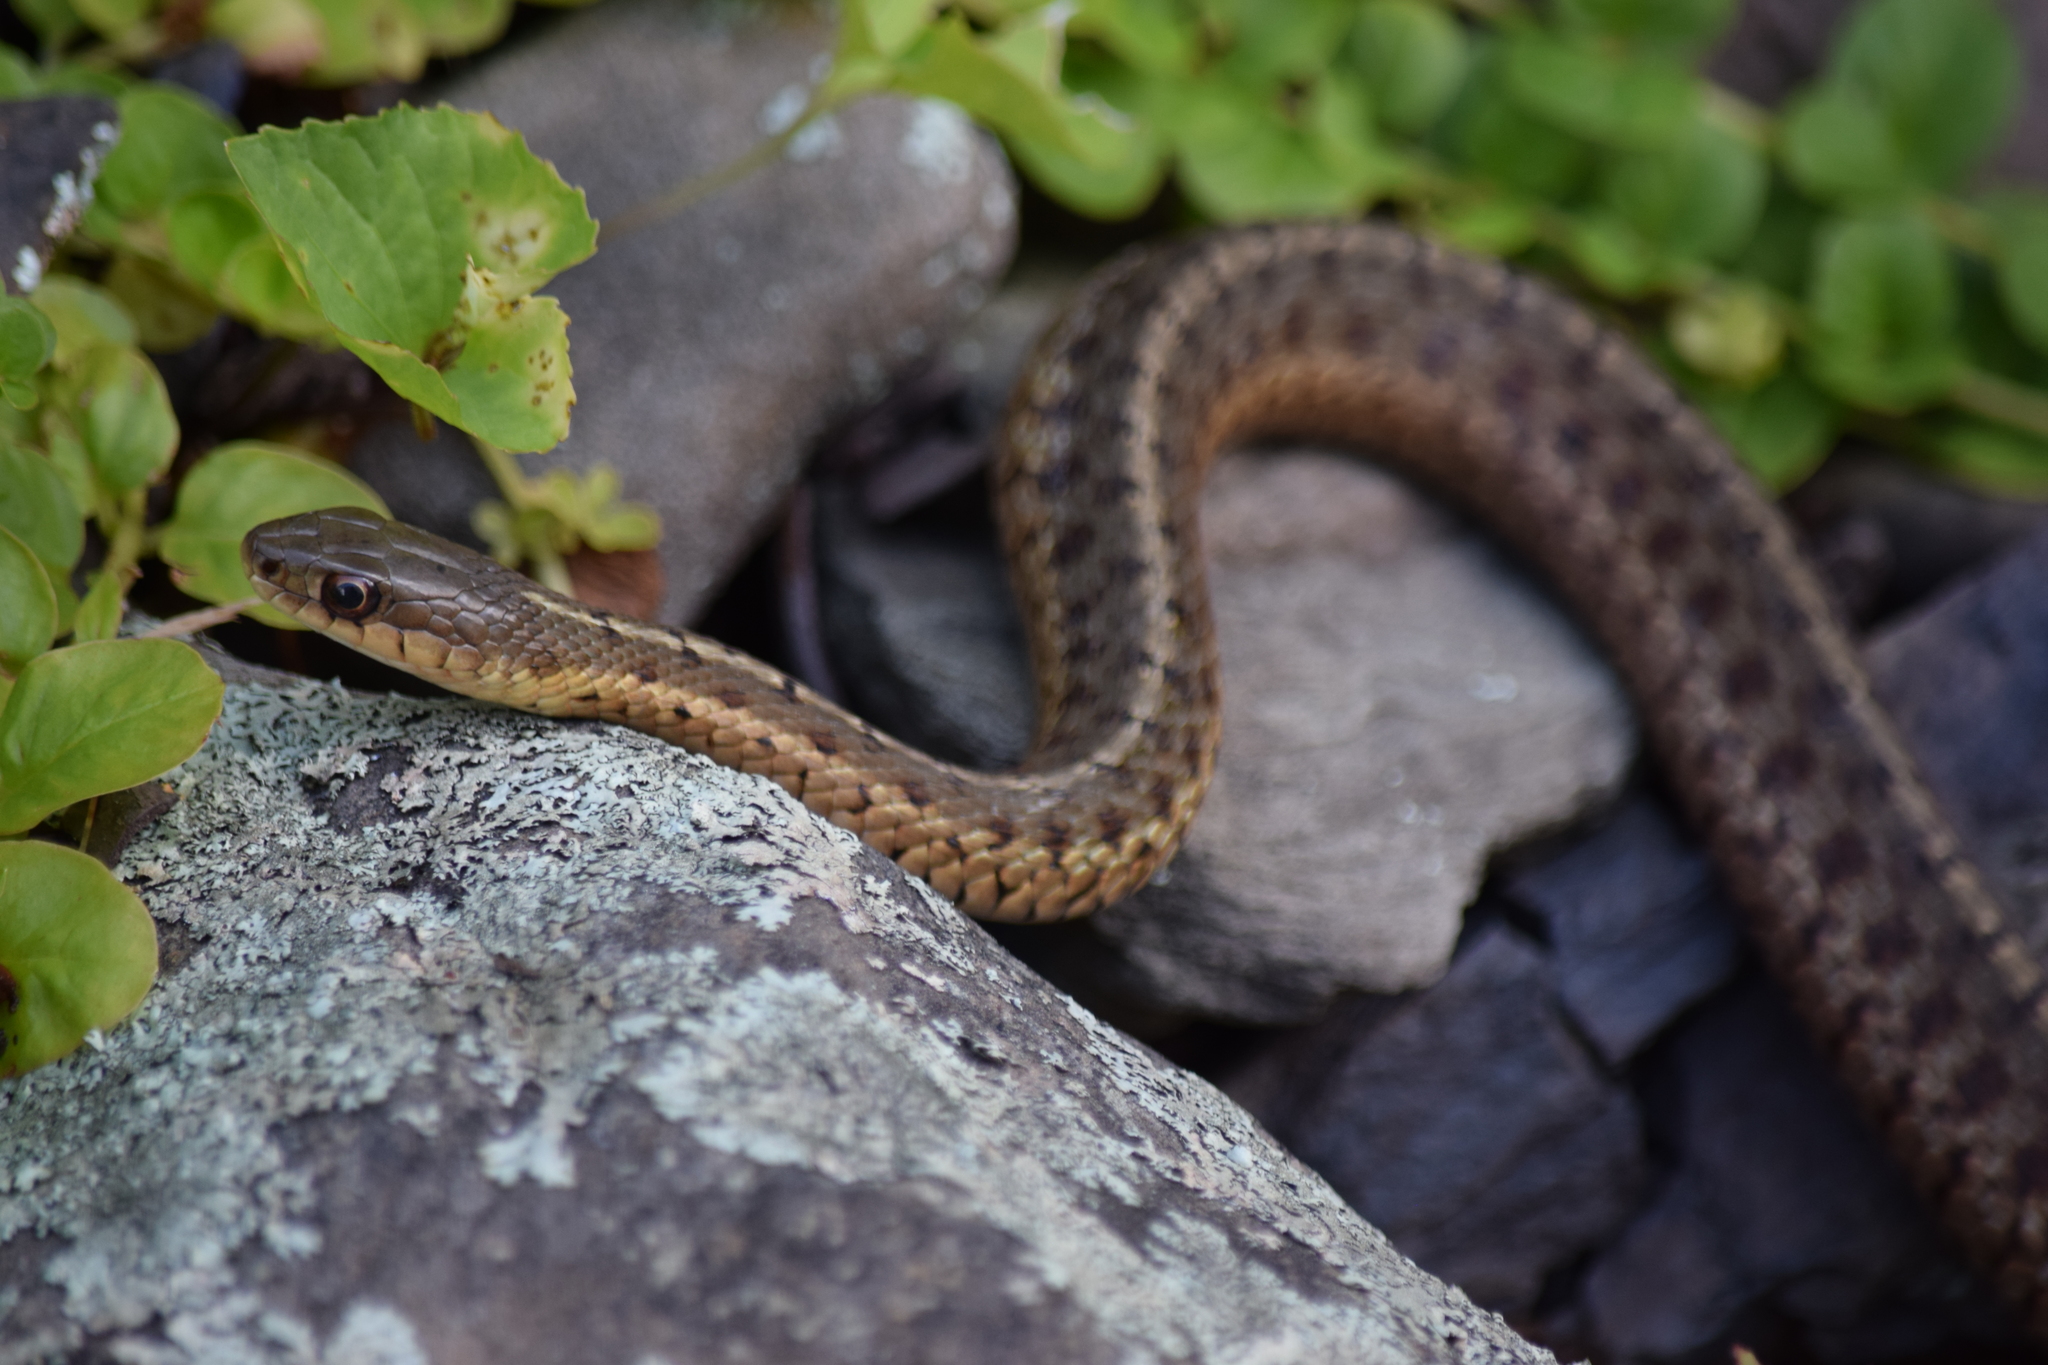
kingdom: Animalia
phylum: Chordata
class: Squamata
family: Colubridae
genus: Thamnophis
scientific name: Thamnophis sirtalis
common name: Common garter snake
